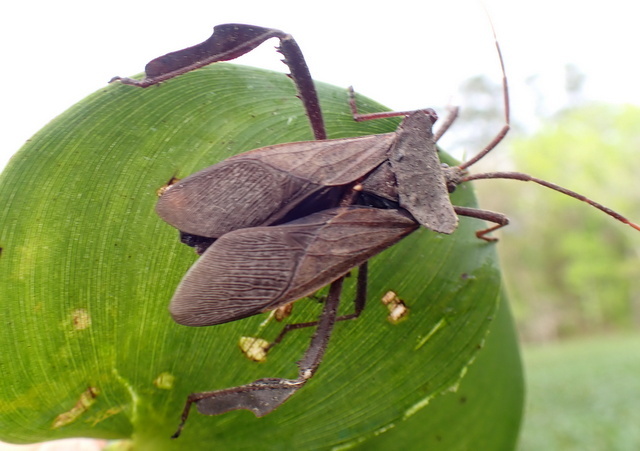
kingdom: Animalia
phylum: Arthropoda
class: Insecta
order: Hemiptera
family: Coreidae
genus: Acanthocephala
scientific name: Acanthocephala declivis
